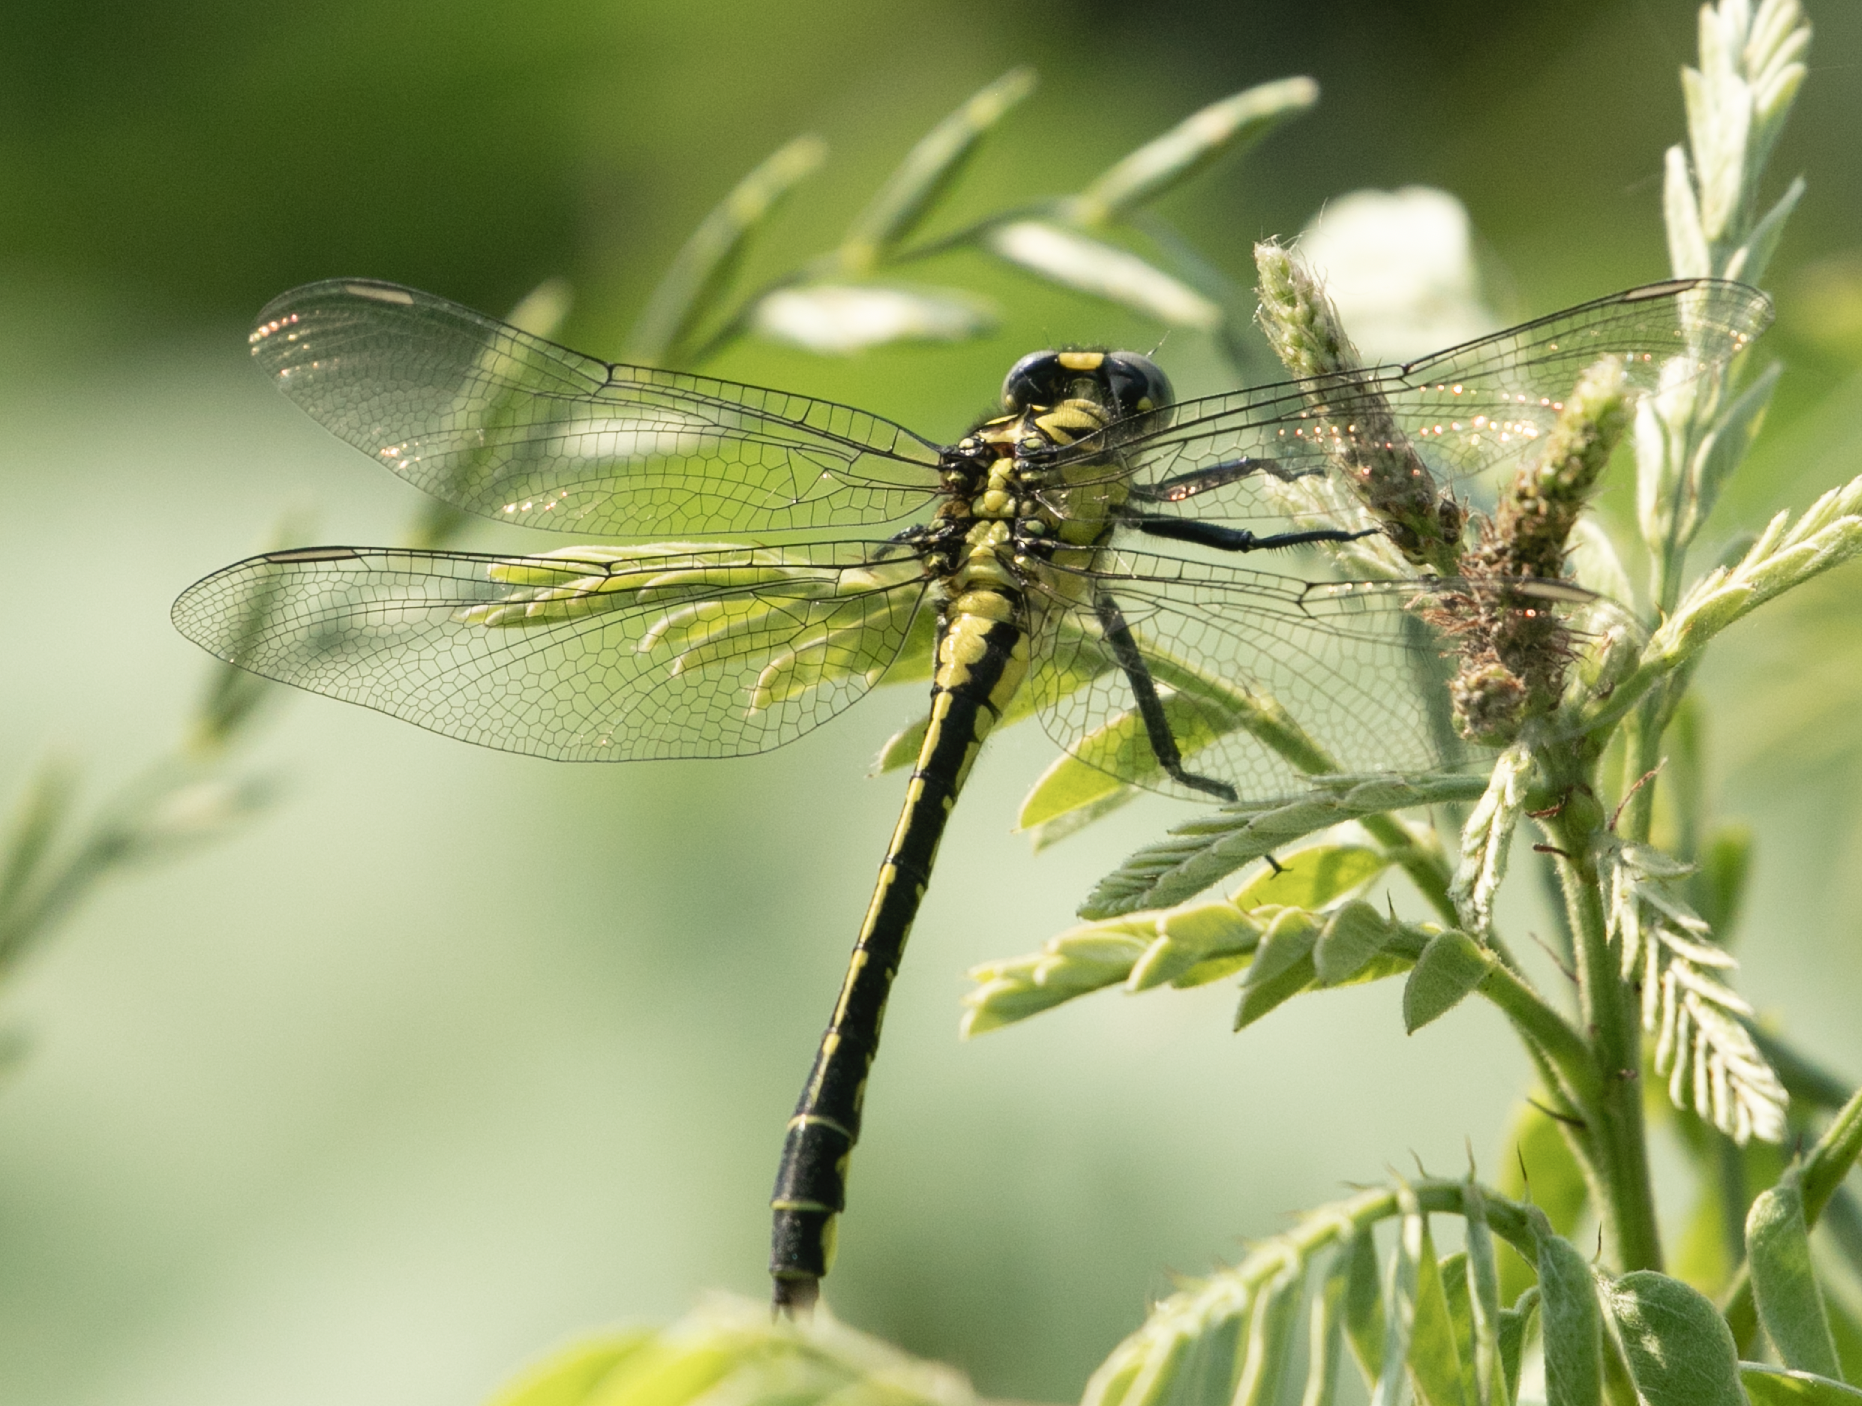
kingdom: Animalia
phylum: Arthropoda
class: Insecta
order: Odonata
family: Gomphidae
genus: Gomphus
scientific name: Gomphus vulgatissimus
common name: Club-tailed dragonfly
